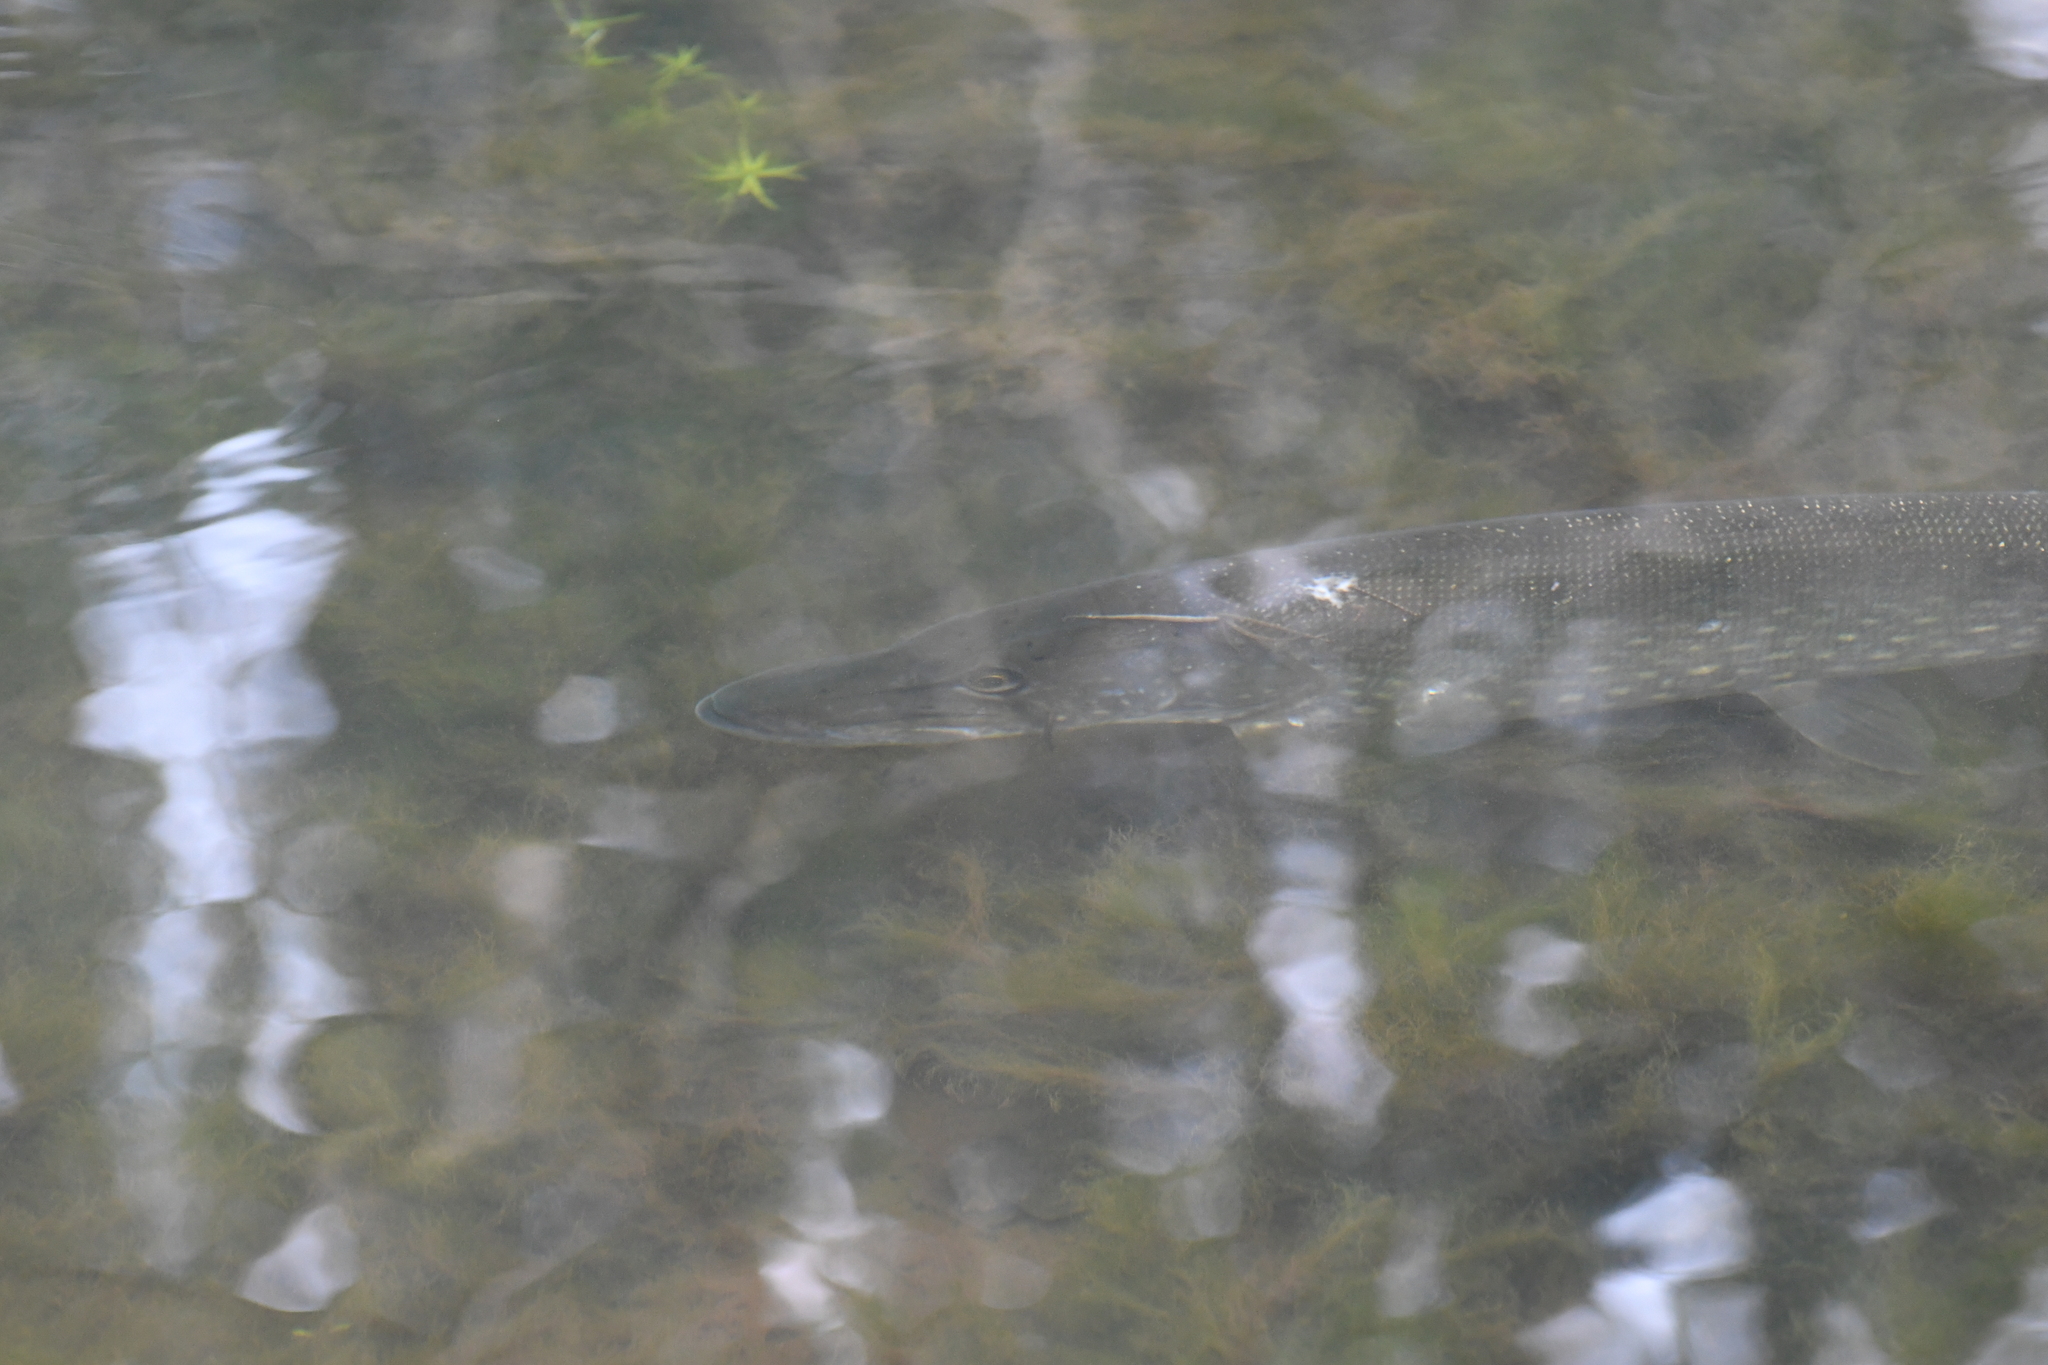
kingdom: Animalia
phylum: Chordata
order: Esociformes
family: Esocidae
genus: Esox
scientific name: Esox lucius
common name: Northern pike
